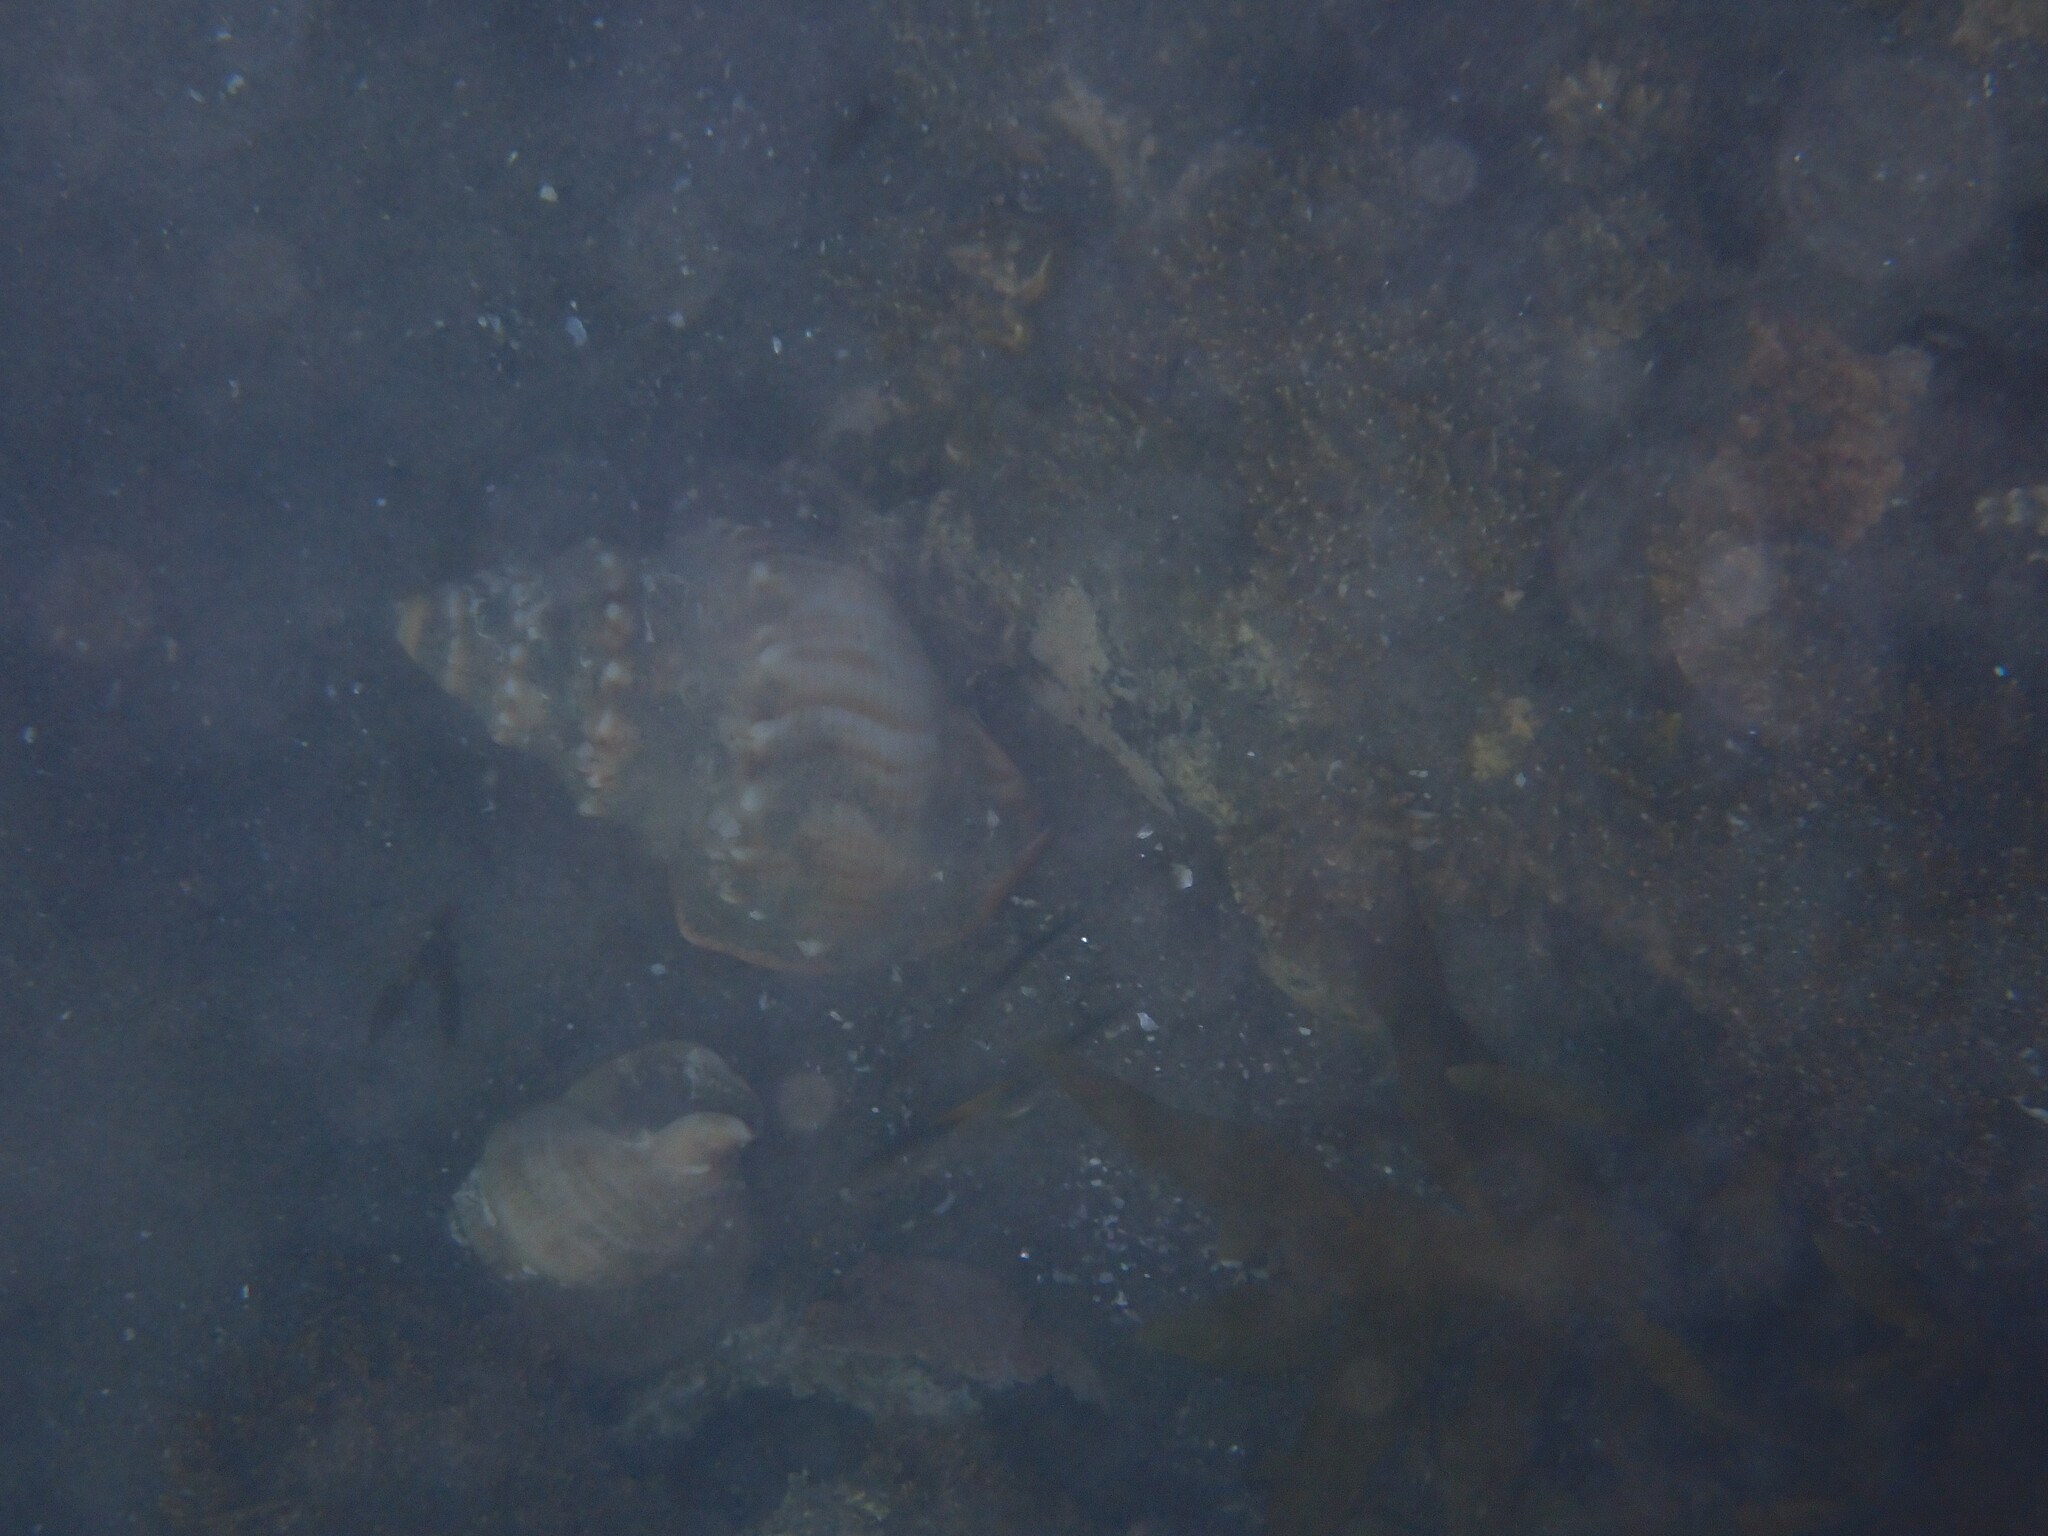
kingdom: Animalia
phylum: Mollusca
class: Gastropoda
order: Littorinimorpha
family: Struthiolariidae
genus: Struthiolaria
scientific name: Struthiolaria papulosa
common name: Large ostrich foot
